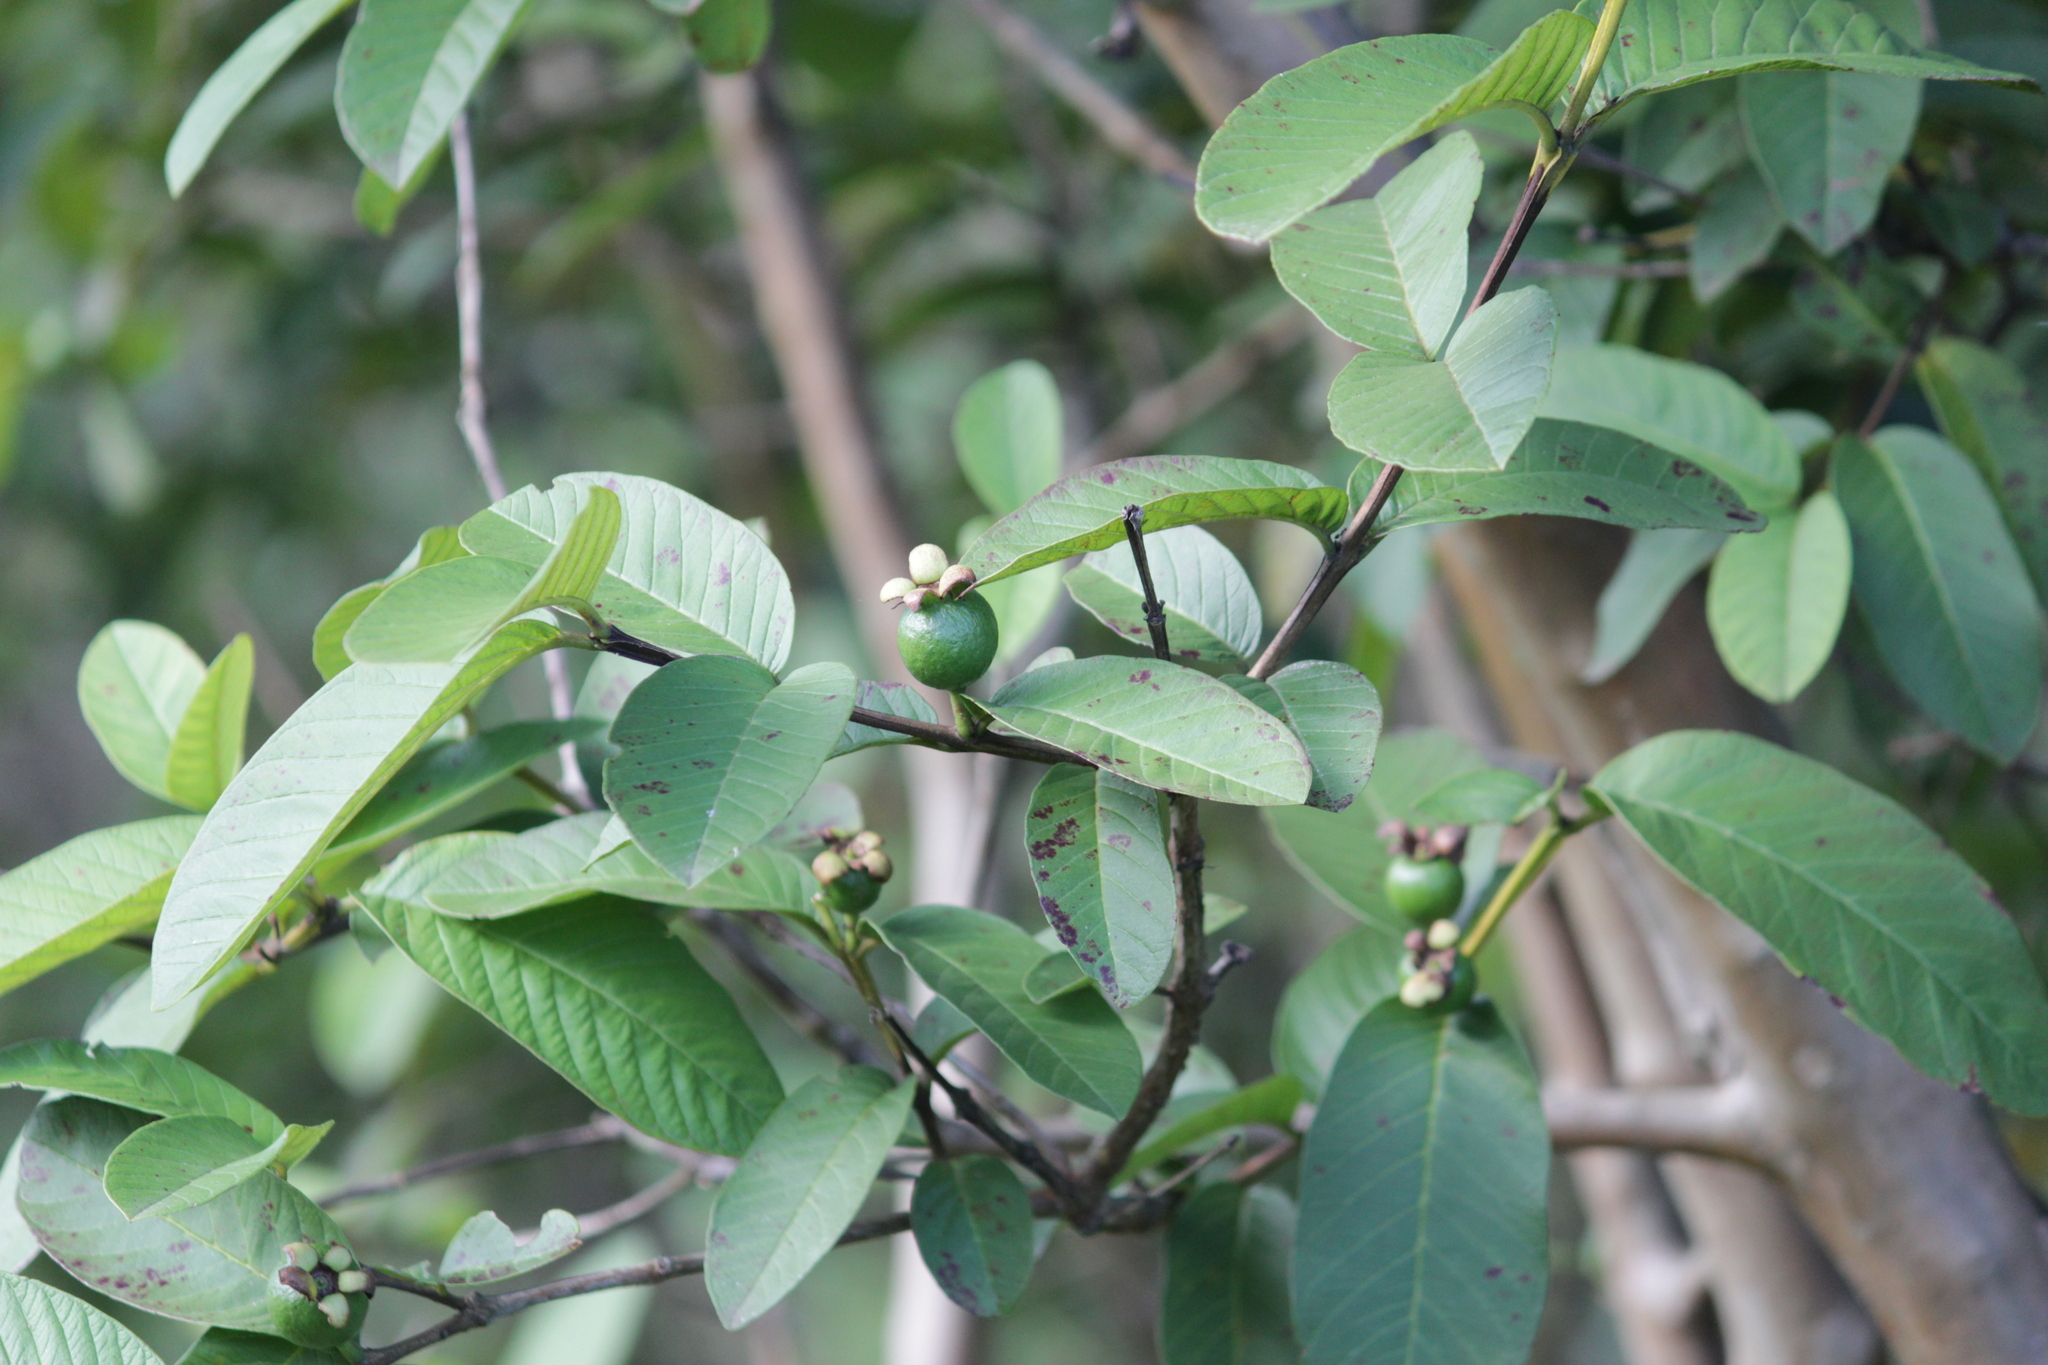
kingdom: Plantae
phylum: Tracheophyta
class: Magnoliopsida
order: Myrtales
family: Myrtaceae
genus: Psidium
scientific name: Psidium guajava
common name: Guava
